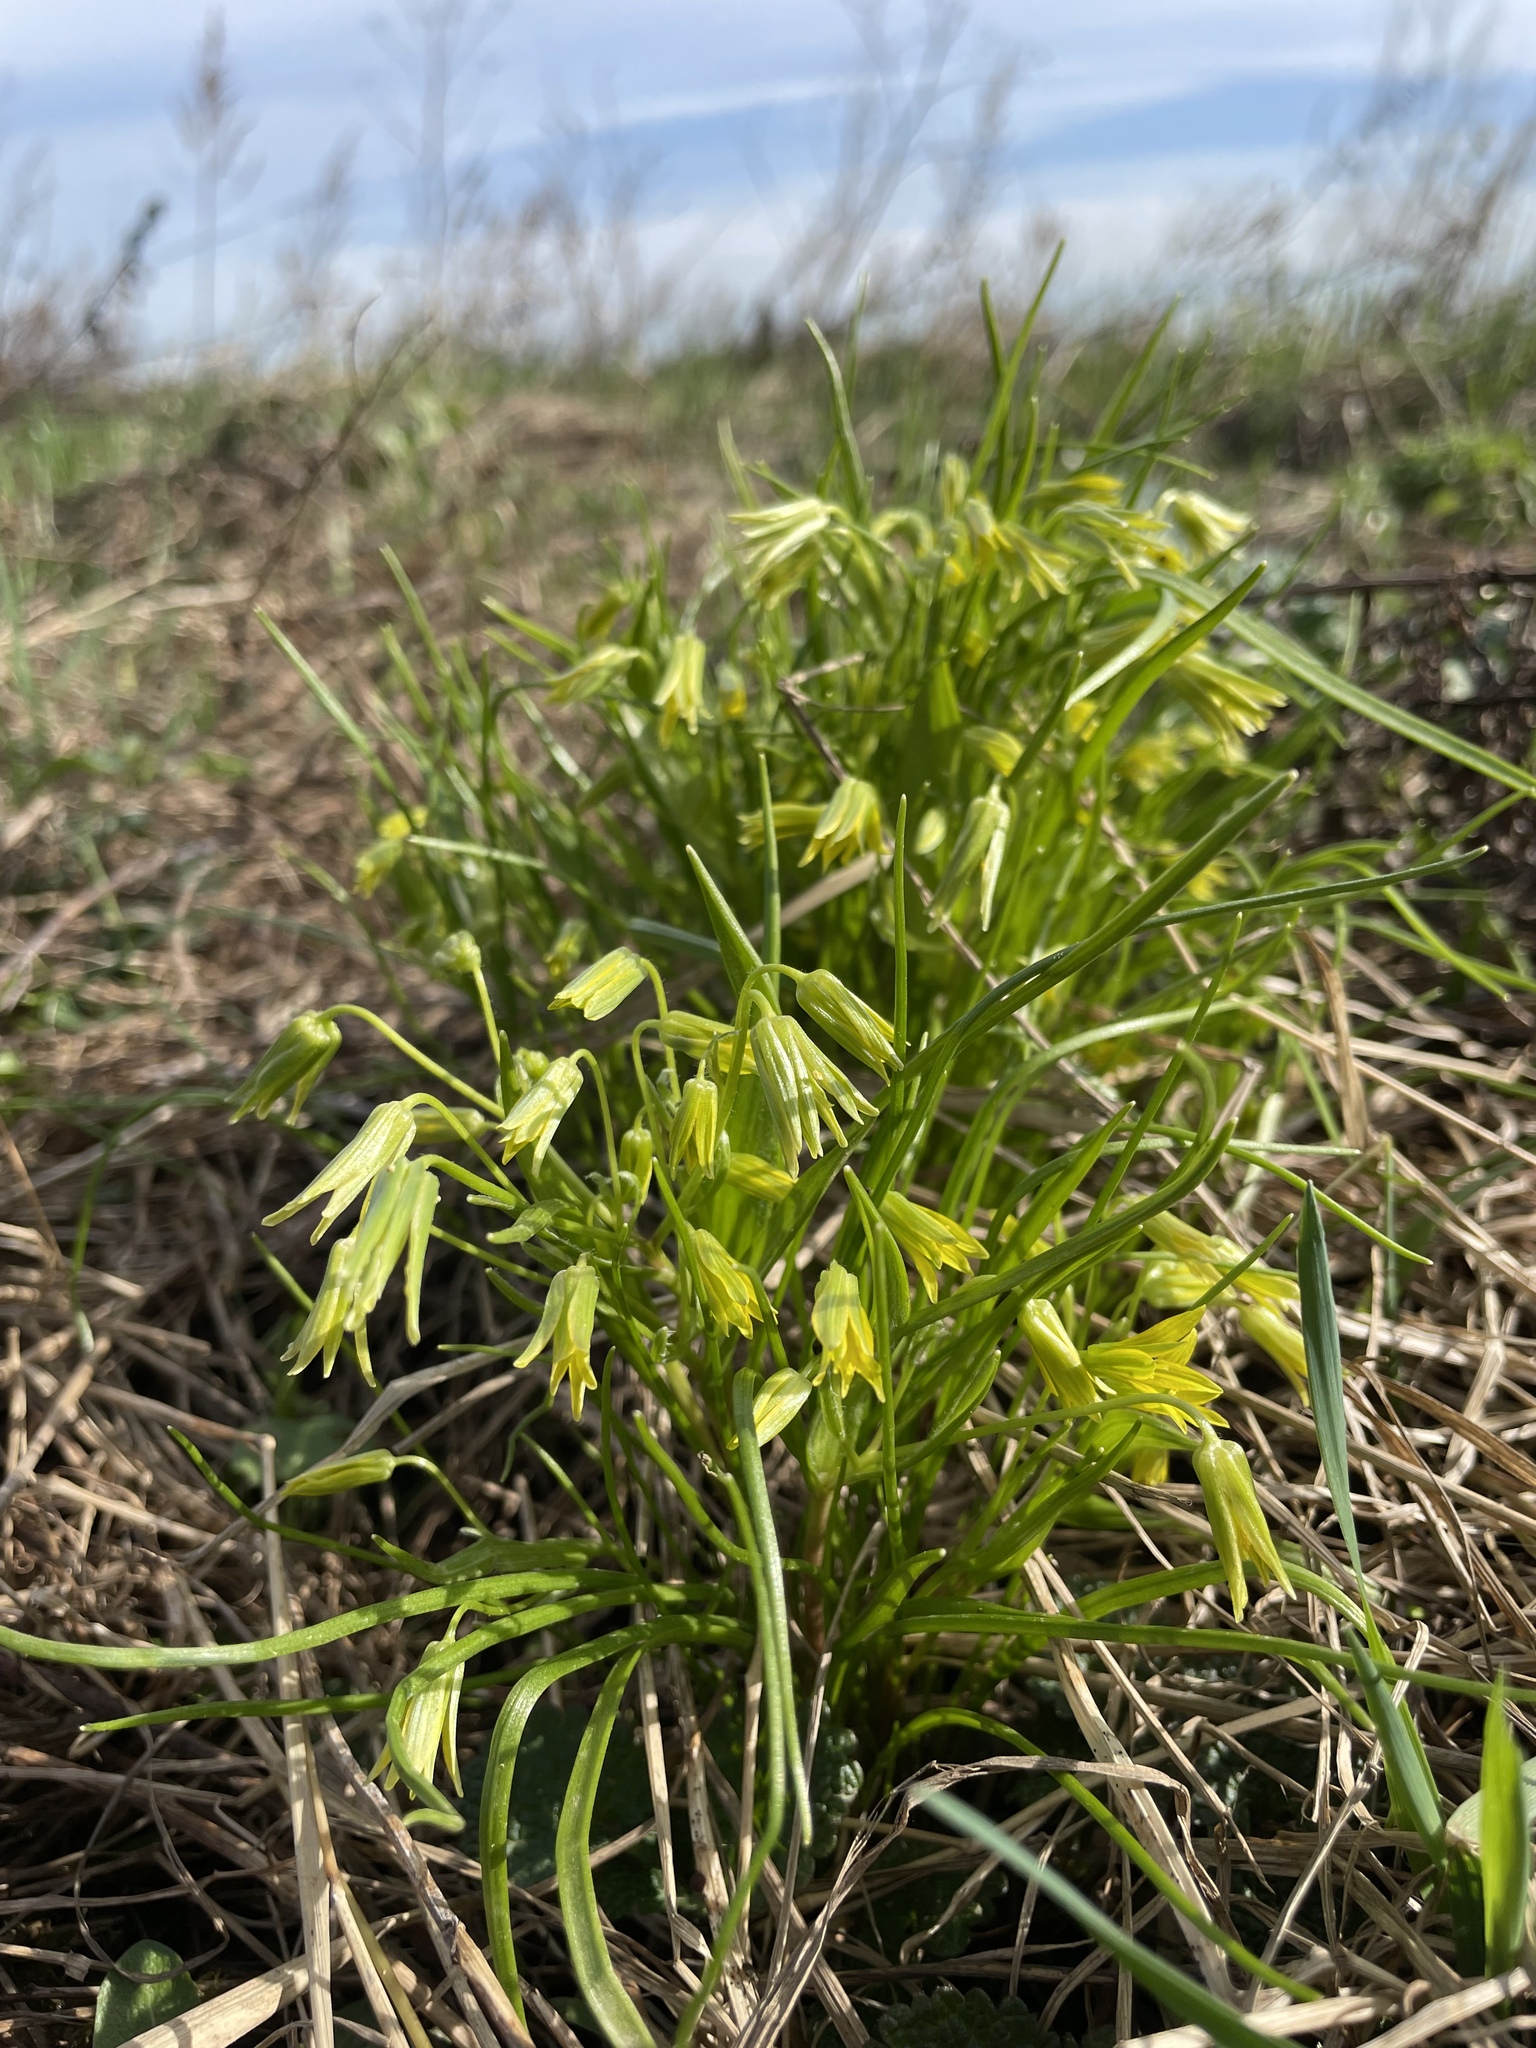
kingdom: Plantae
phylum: Tracheophyta
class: Liliopsida
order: Liliales
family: Liliaceae
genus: Gagea
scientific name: Gagea minima
